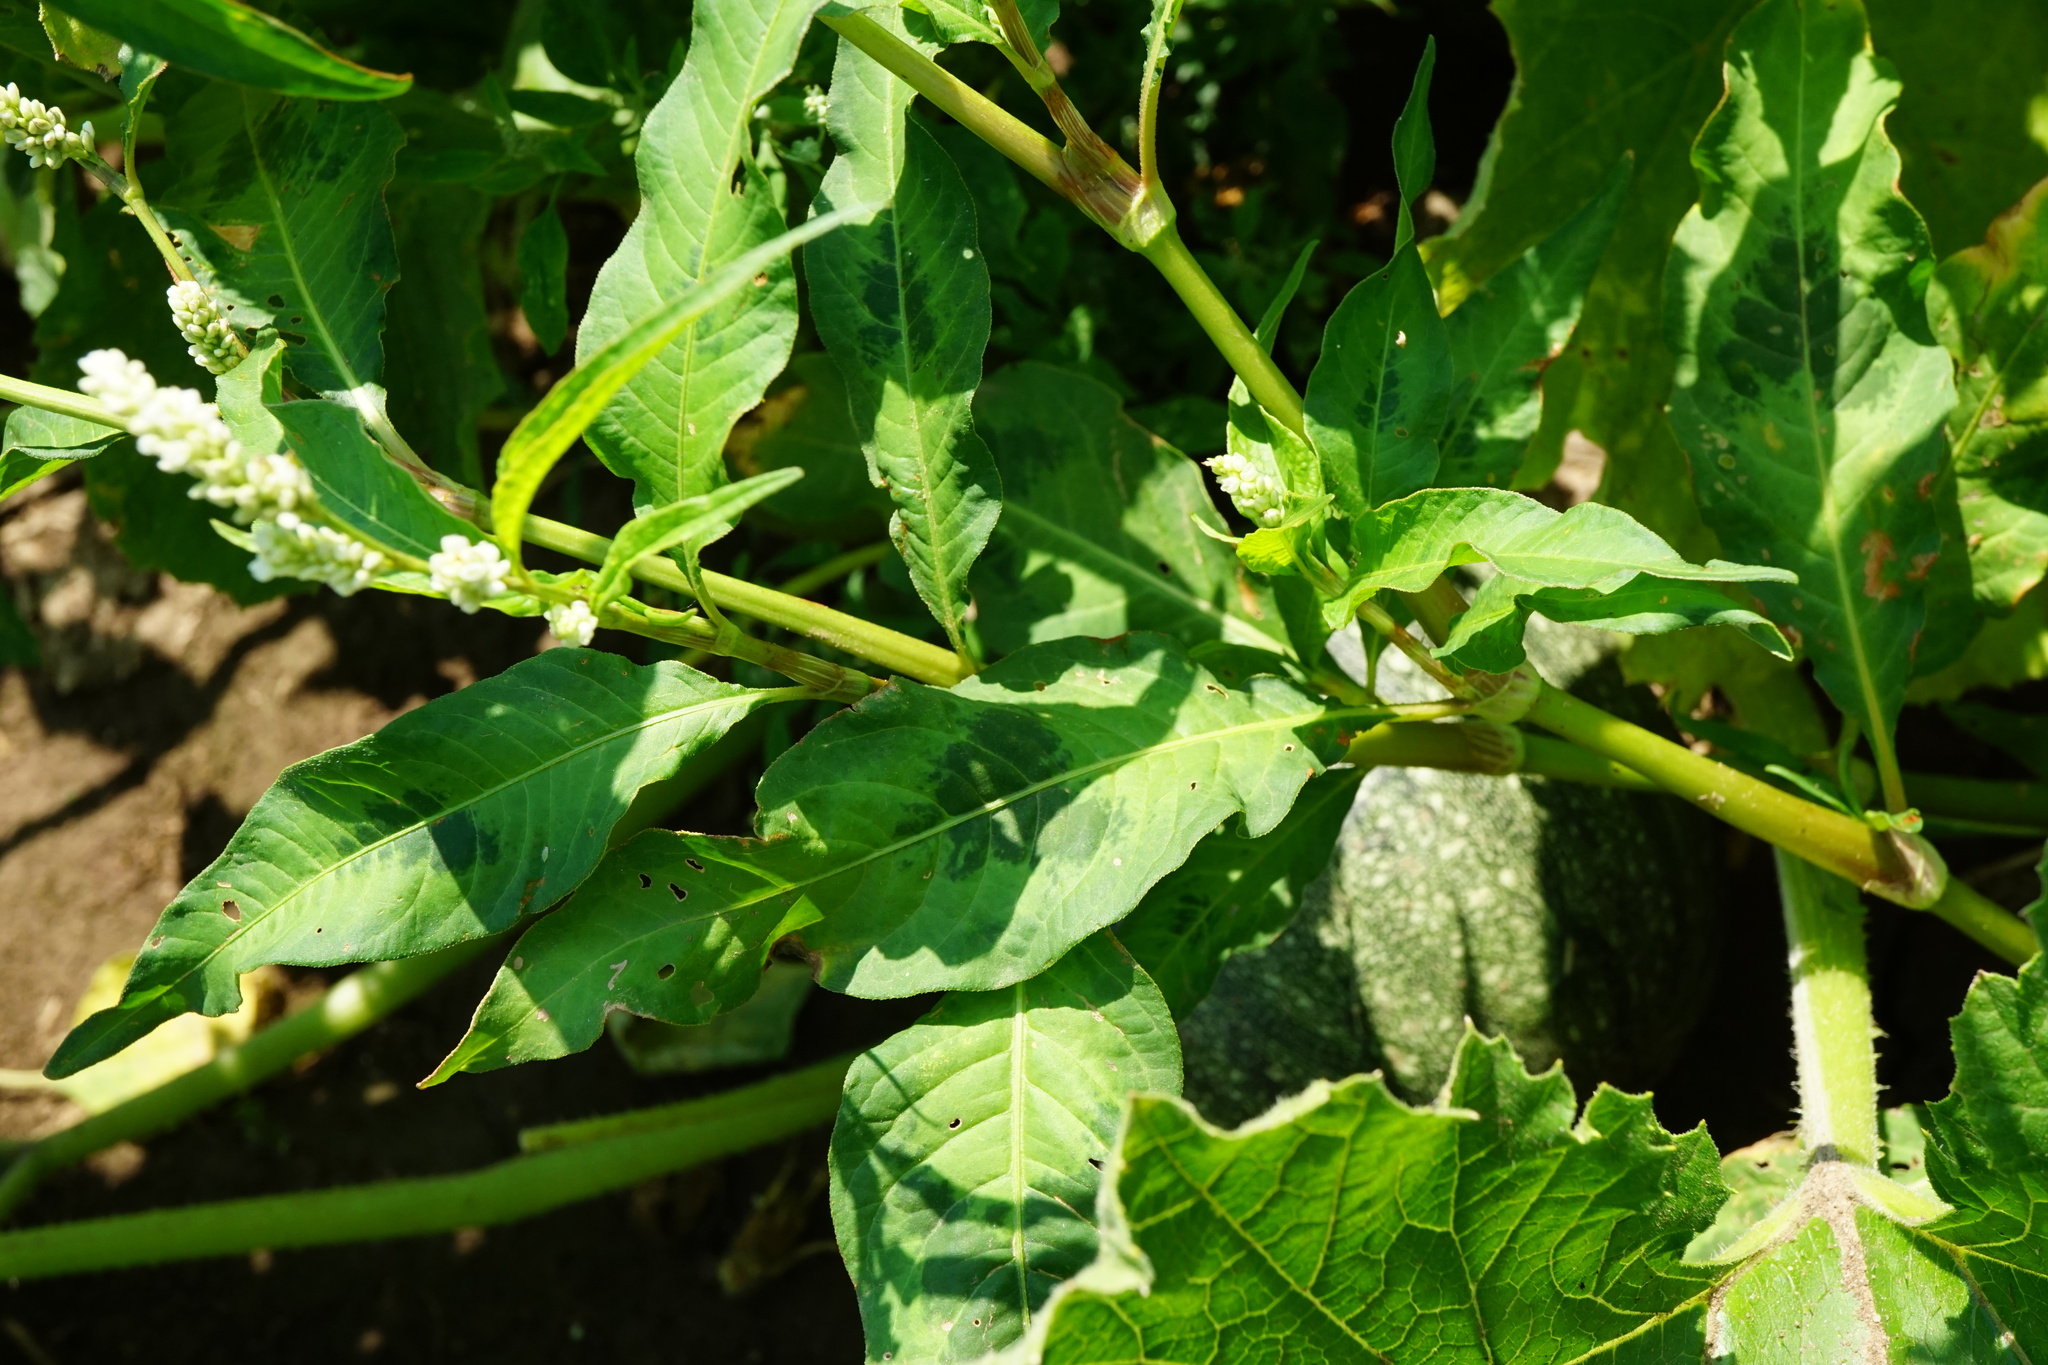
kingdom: Plantae
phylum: Tracheophyta
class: Magnoliopsida
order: Caryophyllales
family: Polygonaceae
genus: Persicaria
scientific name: Persicaria lapathifolia
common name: Curlytop knotweed
